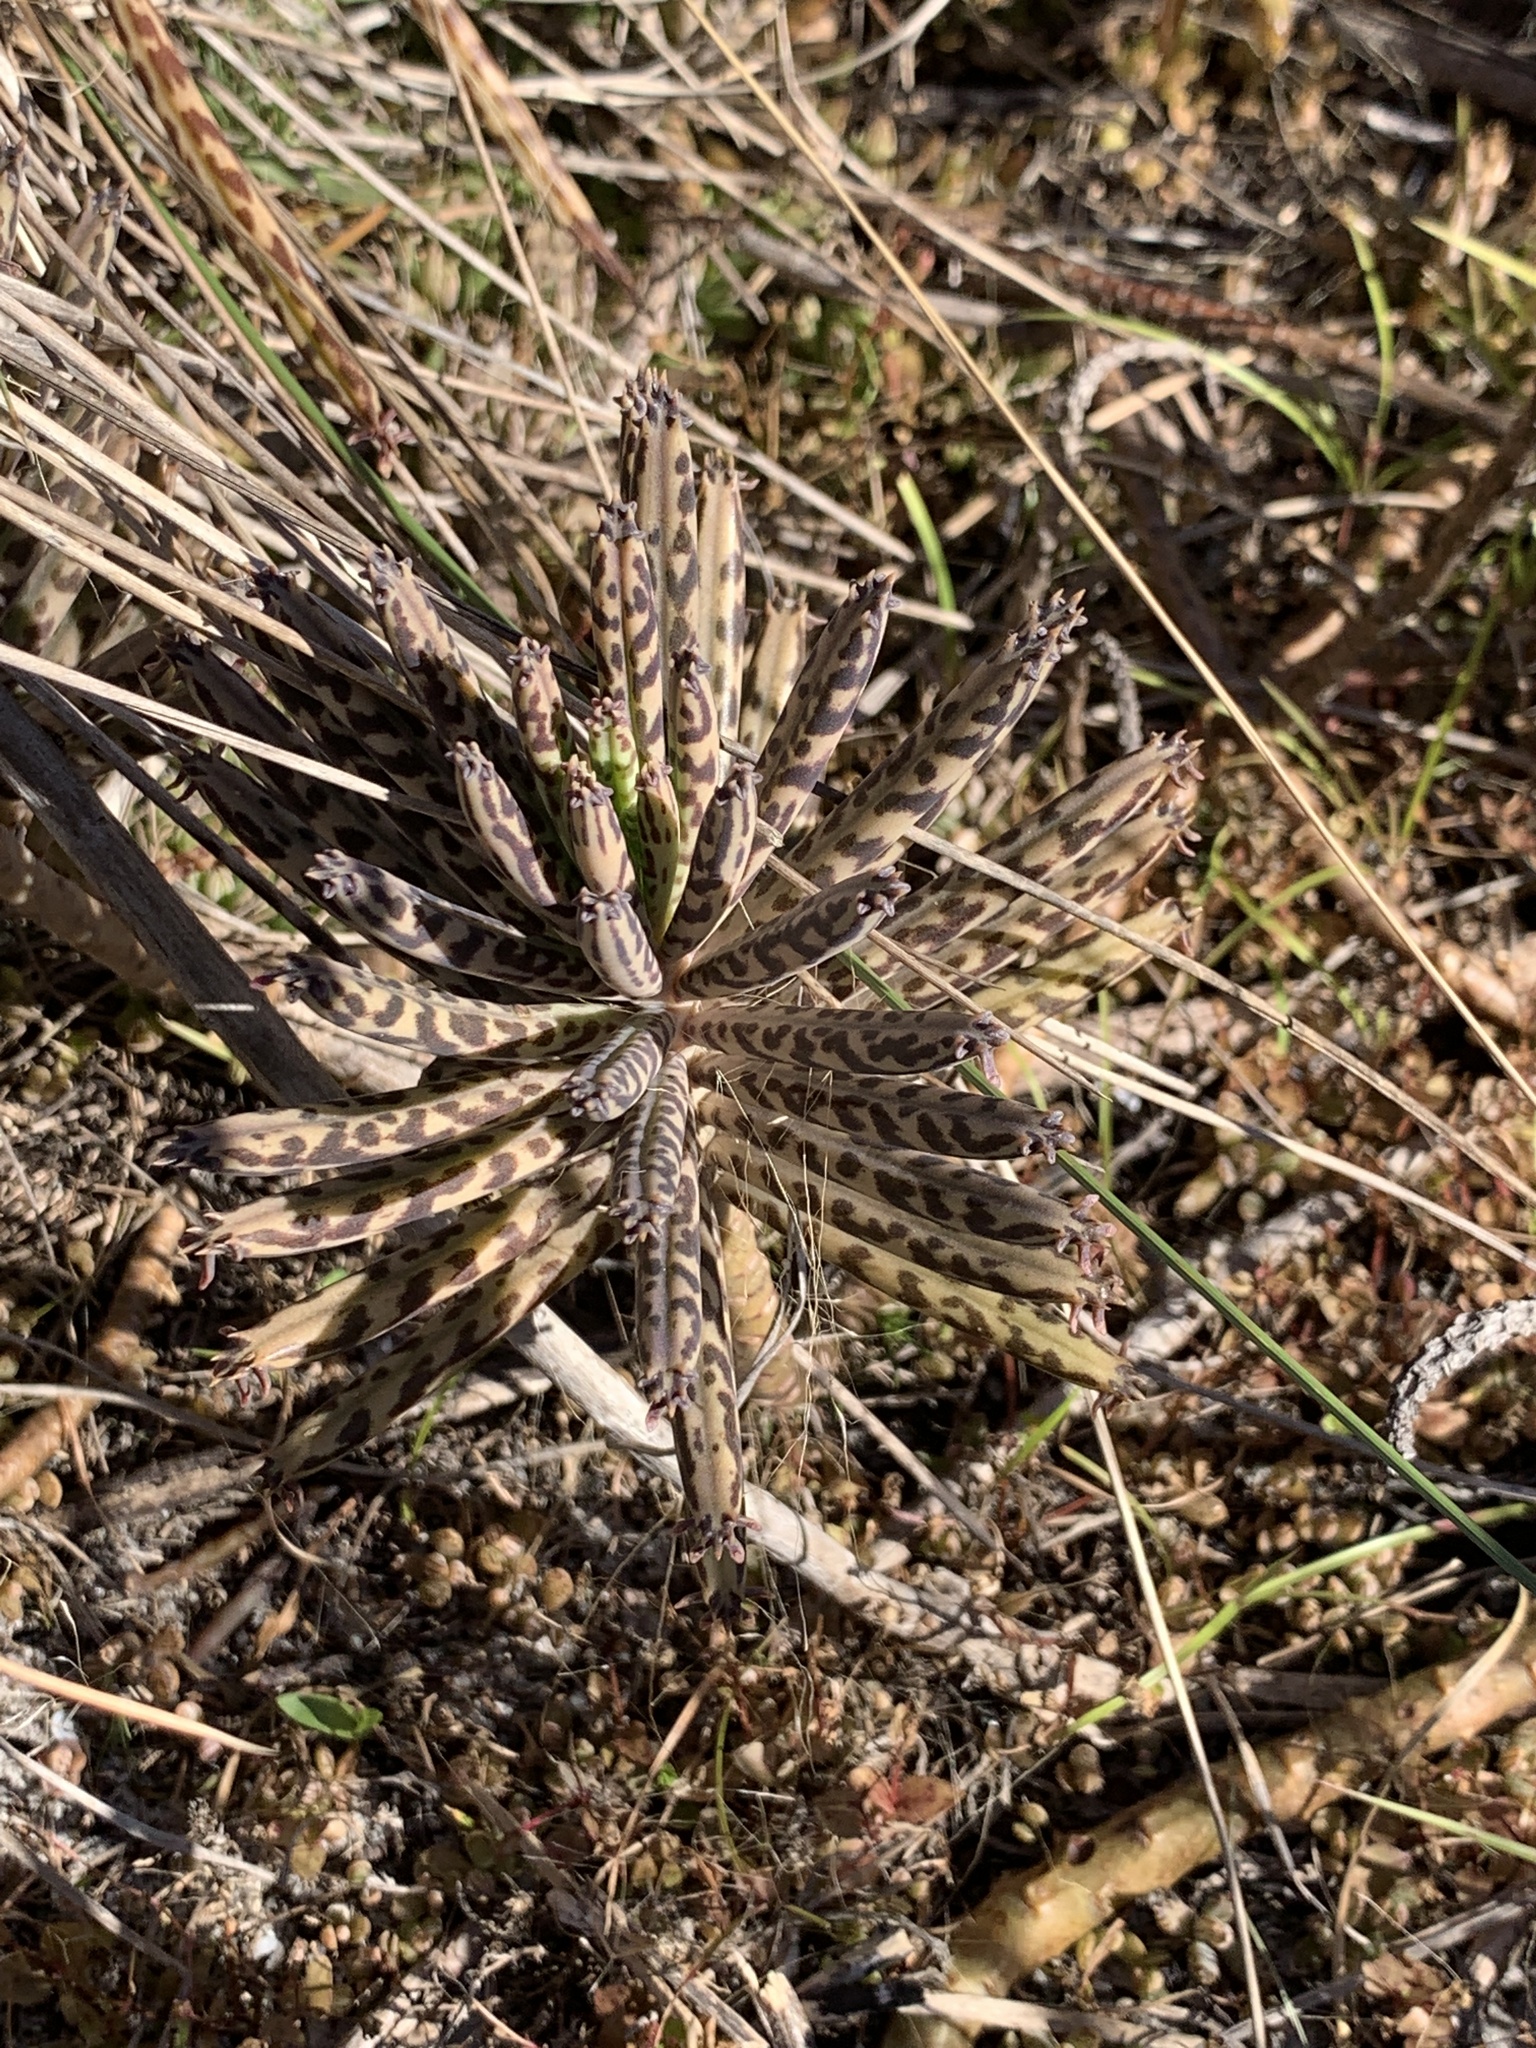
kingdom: Plantae
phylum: Tracheophyta
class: Magnoliopsida
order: Saxifragales
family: Crassulaceae
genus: Kalanchoe
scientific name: Kalanchoe delagoensis
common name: Chandelier plant
